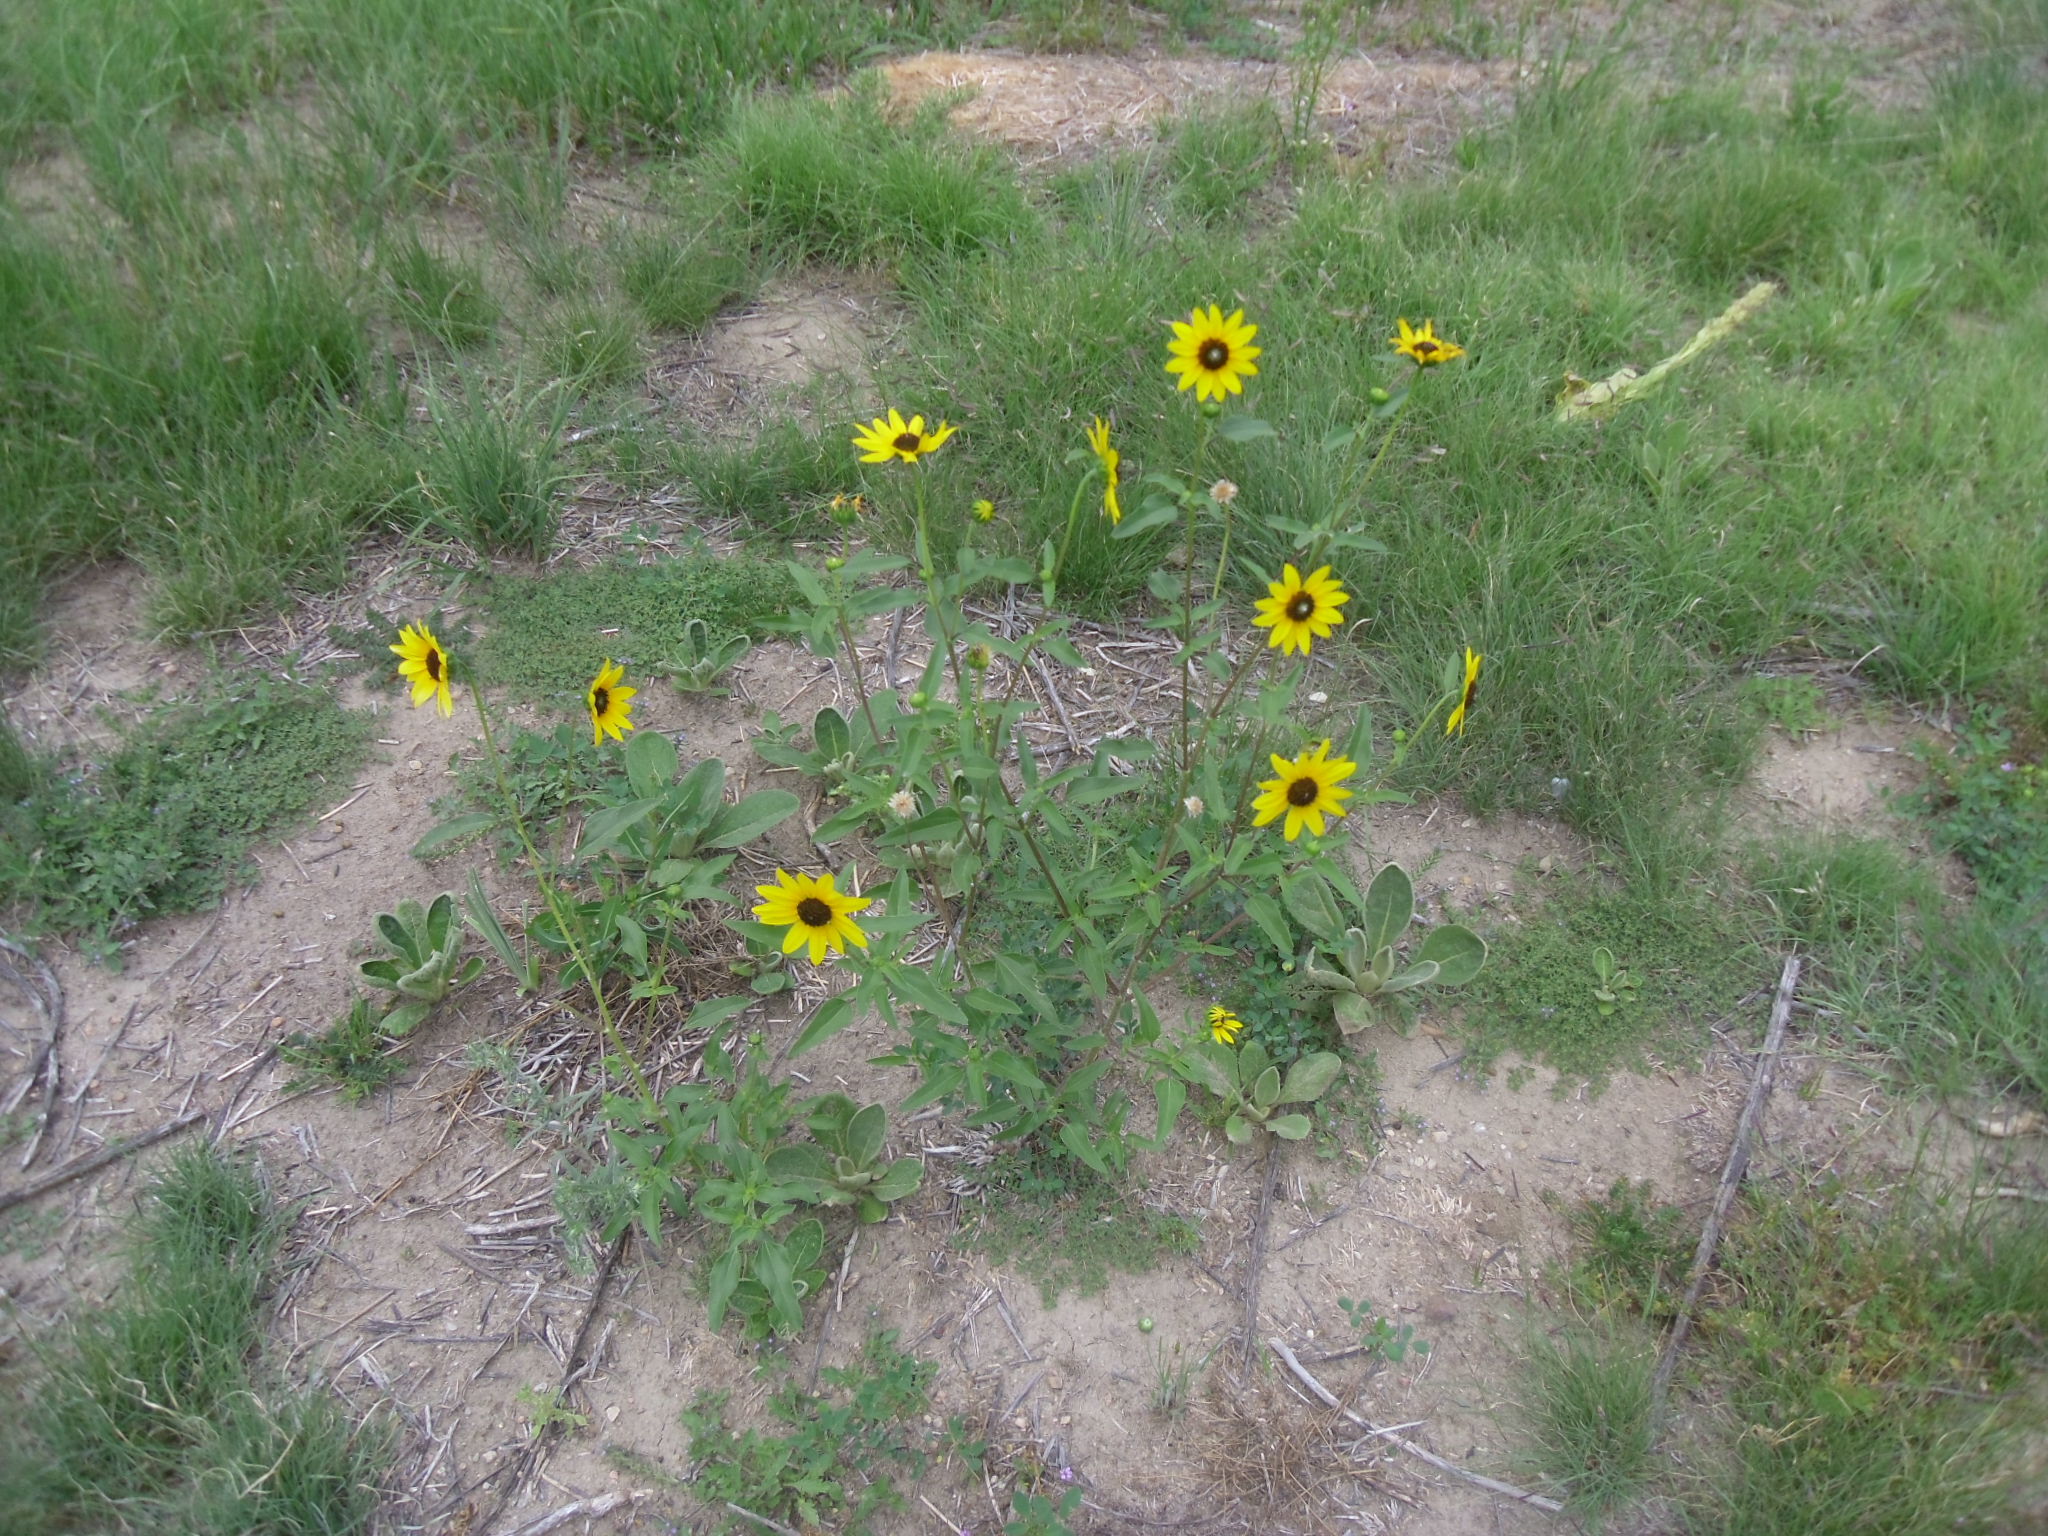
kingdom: Plantae
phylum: Tracheophyta
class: Magnoliopsida
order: Asterales
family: Asteraceae
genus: Helianthus
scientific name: Helianthus petiolaris
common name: Lesser sunflower
